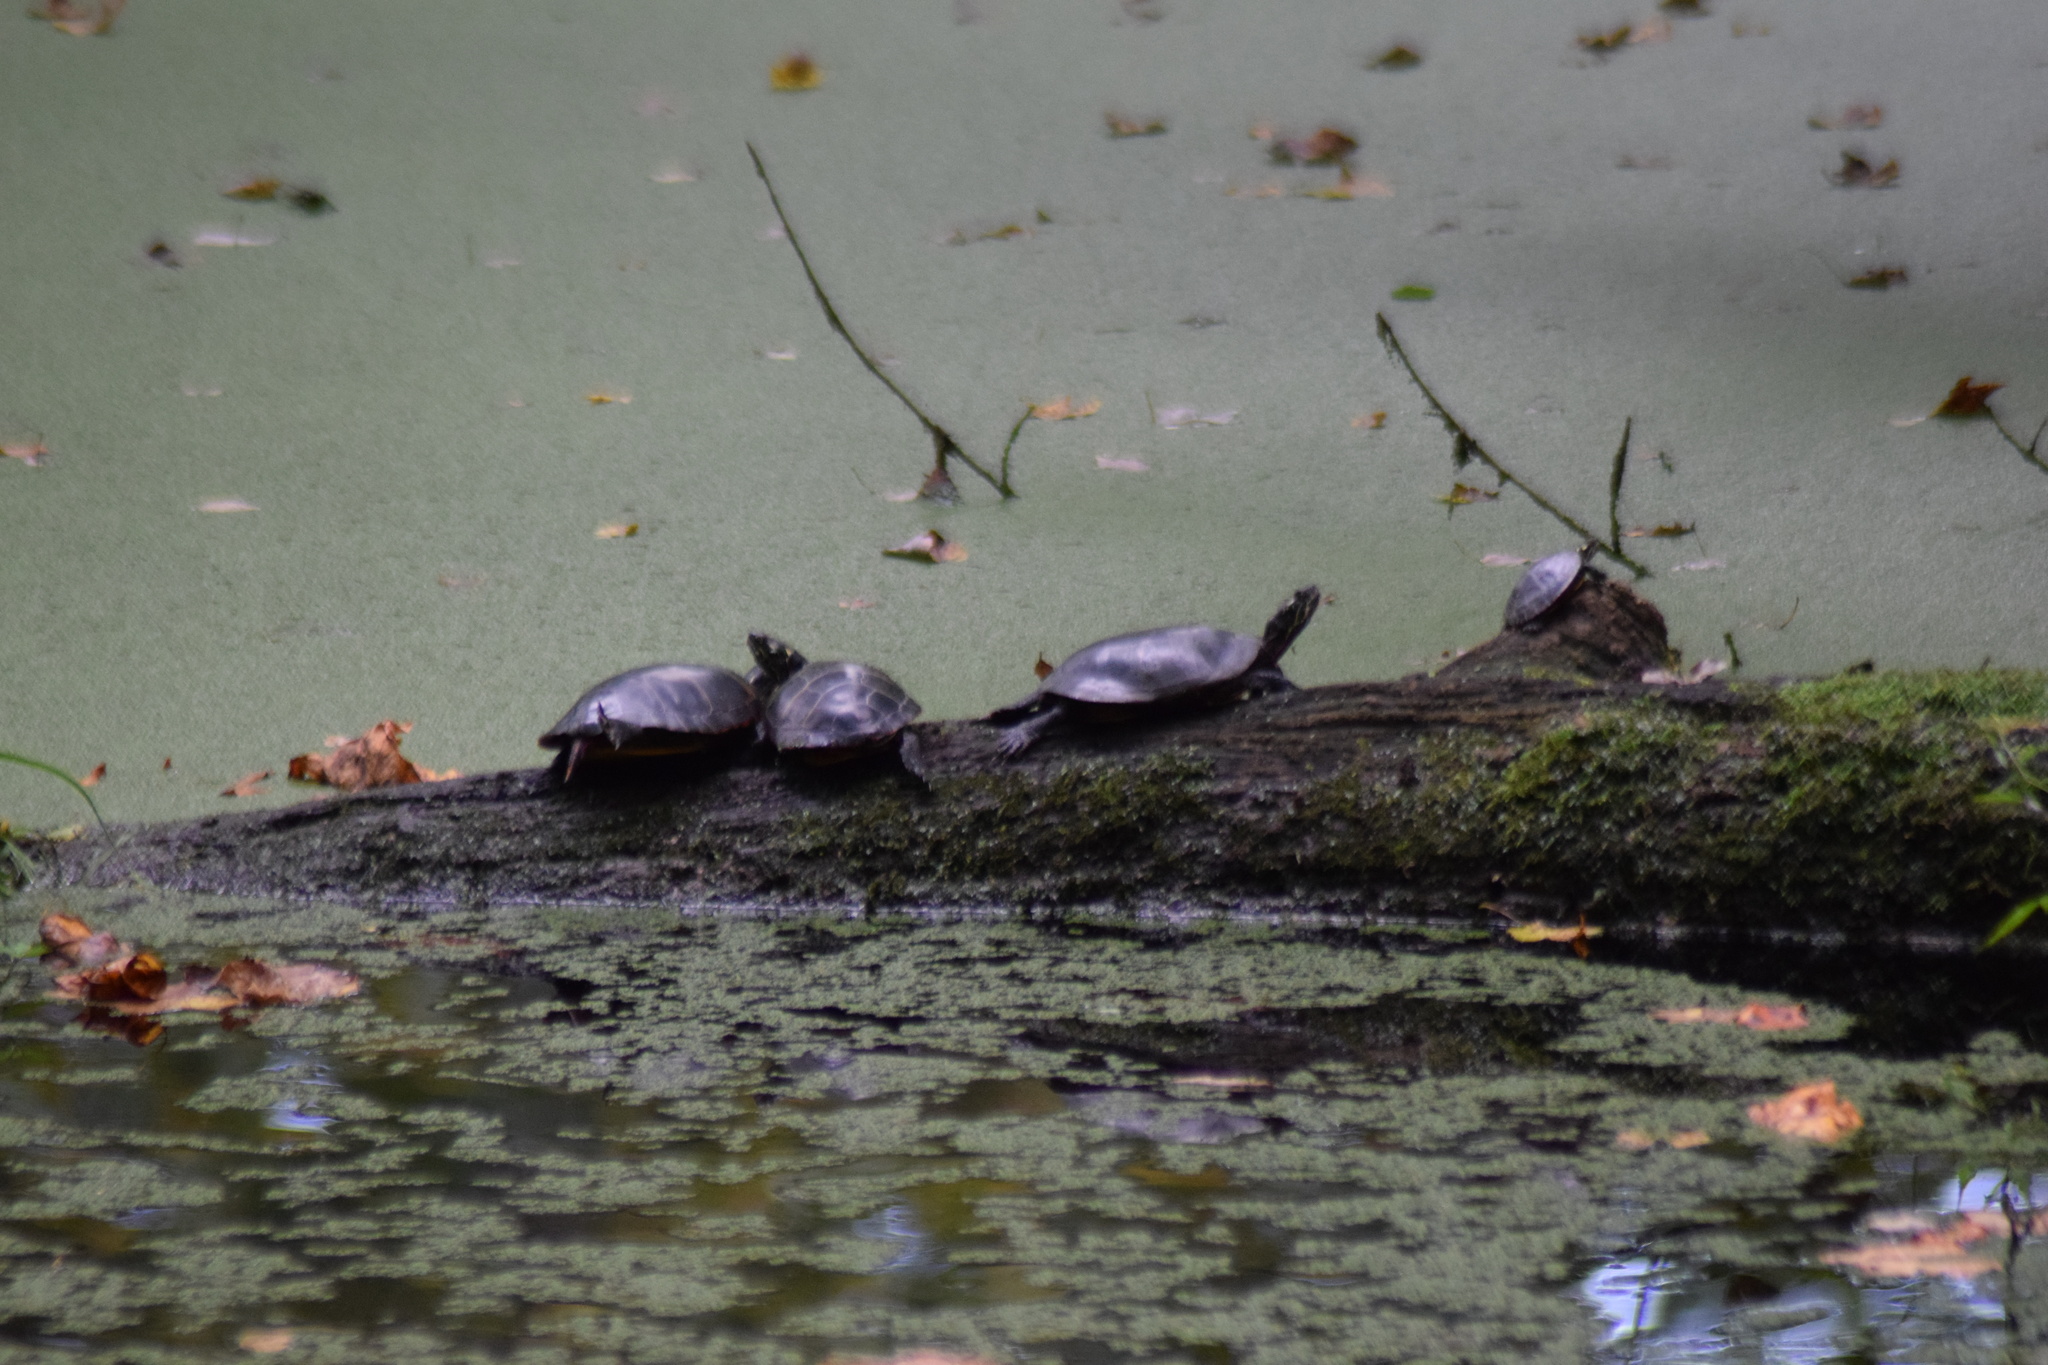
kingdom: Animalia
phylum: Chordata
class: Testudines
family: Emydidae
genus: Chrysemys
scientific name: Chrysemys picta
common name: Painted turtle
